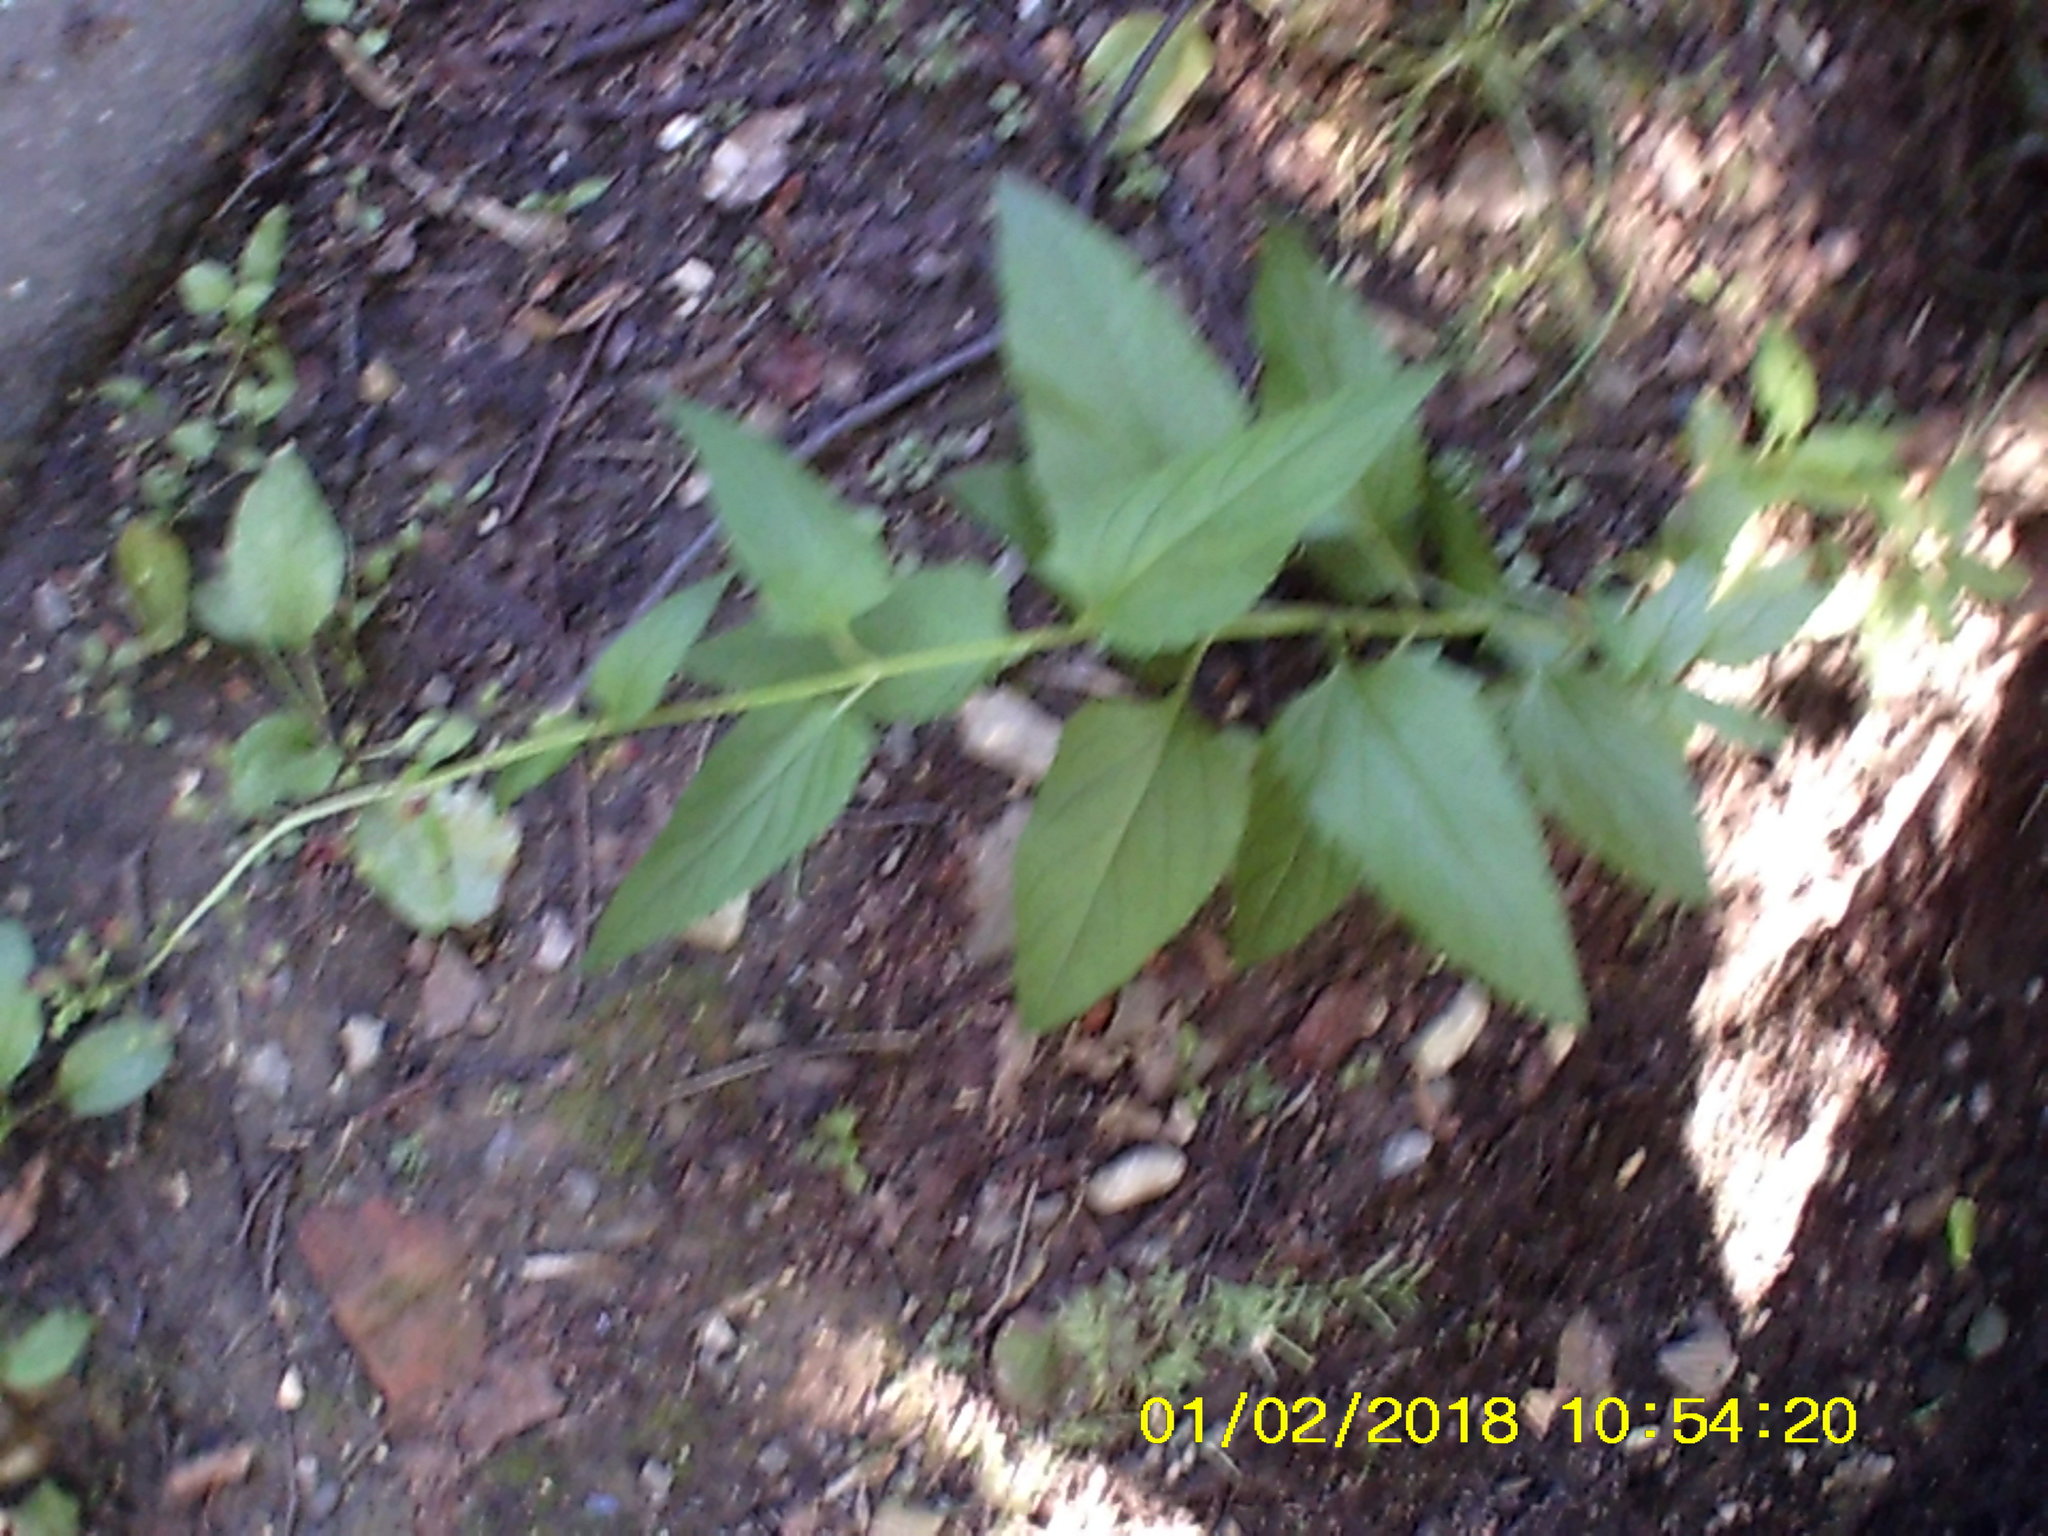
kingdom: Plantae
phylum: Tracheophyta
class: Magnoliopsida
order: Lamiales
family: Scrophulariaceae
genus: Scrophularia
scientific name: Scrophularia nodosa
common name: Common figwort
